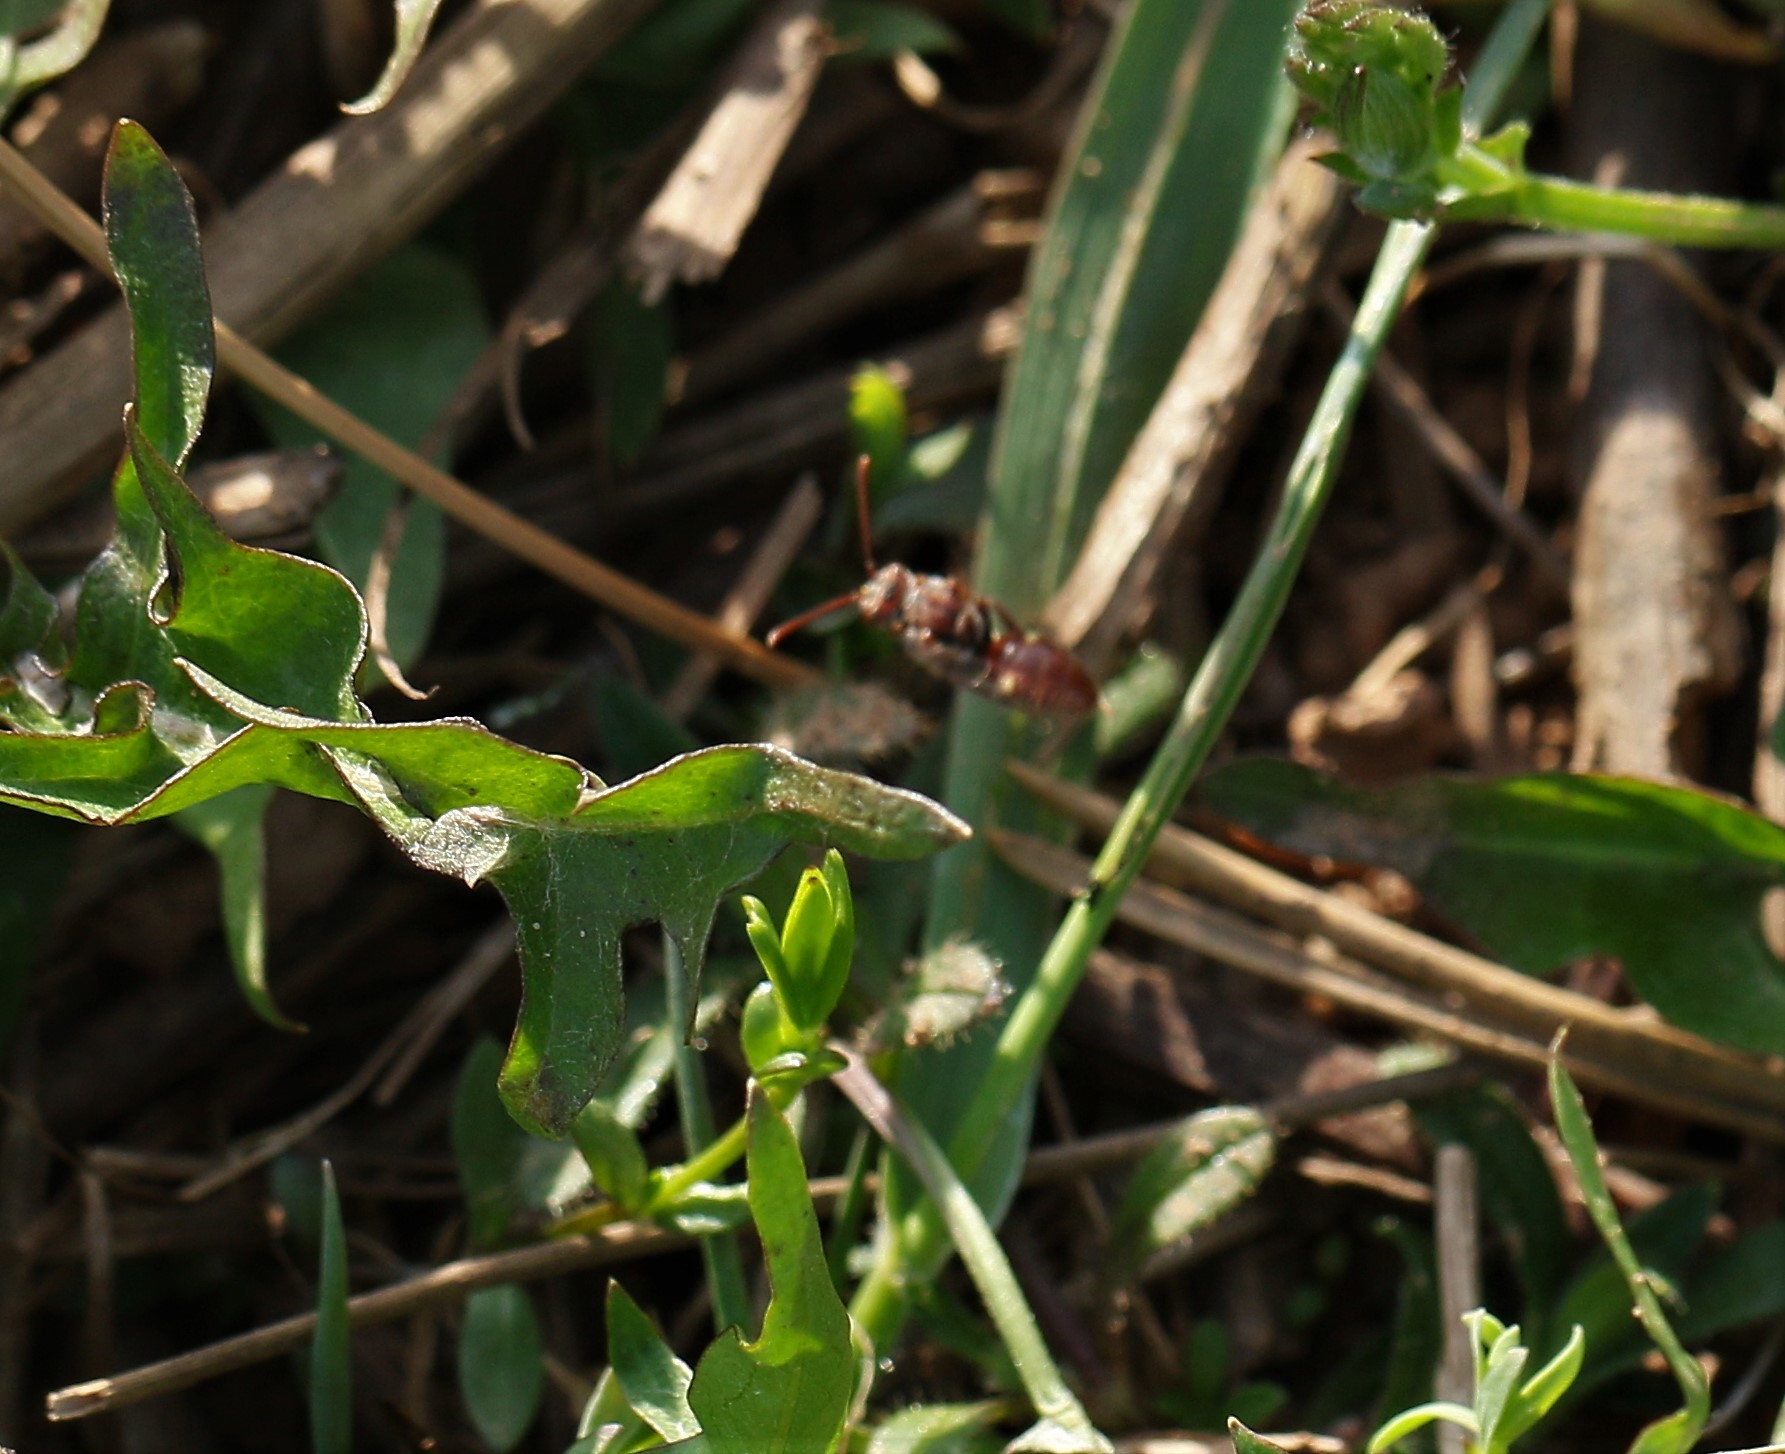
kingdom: Animalia
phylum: Arthropoda
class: Insecta
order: Hymenoptera
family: Apidae
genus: Nomada
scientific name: Nomada
